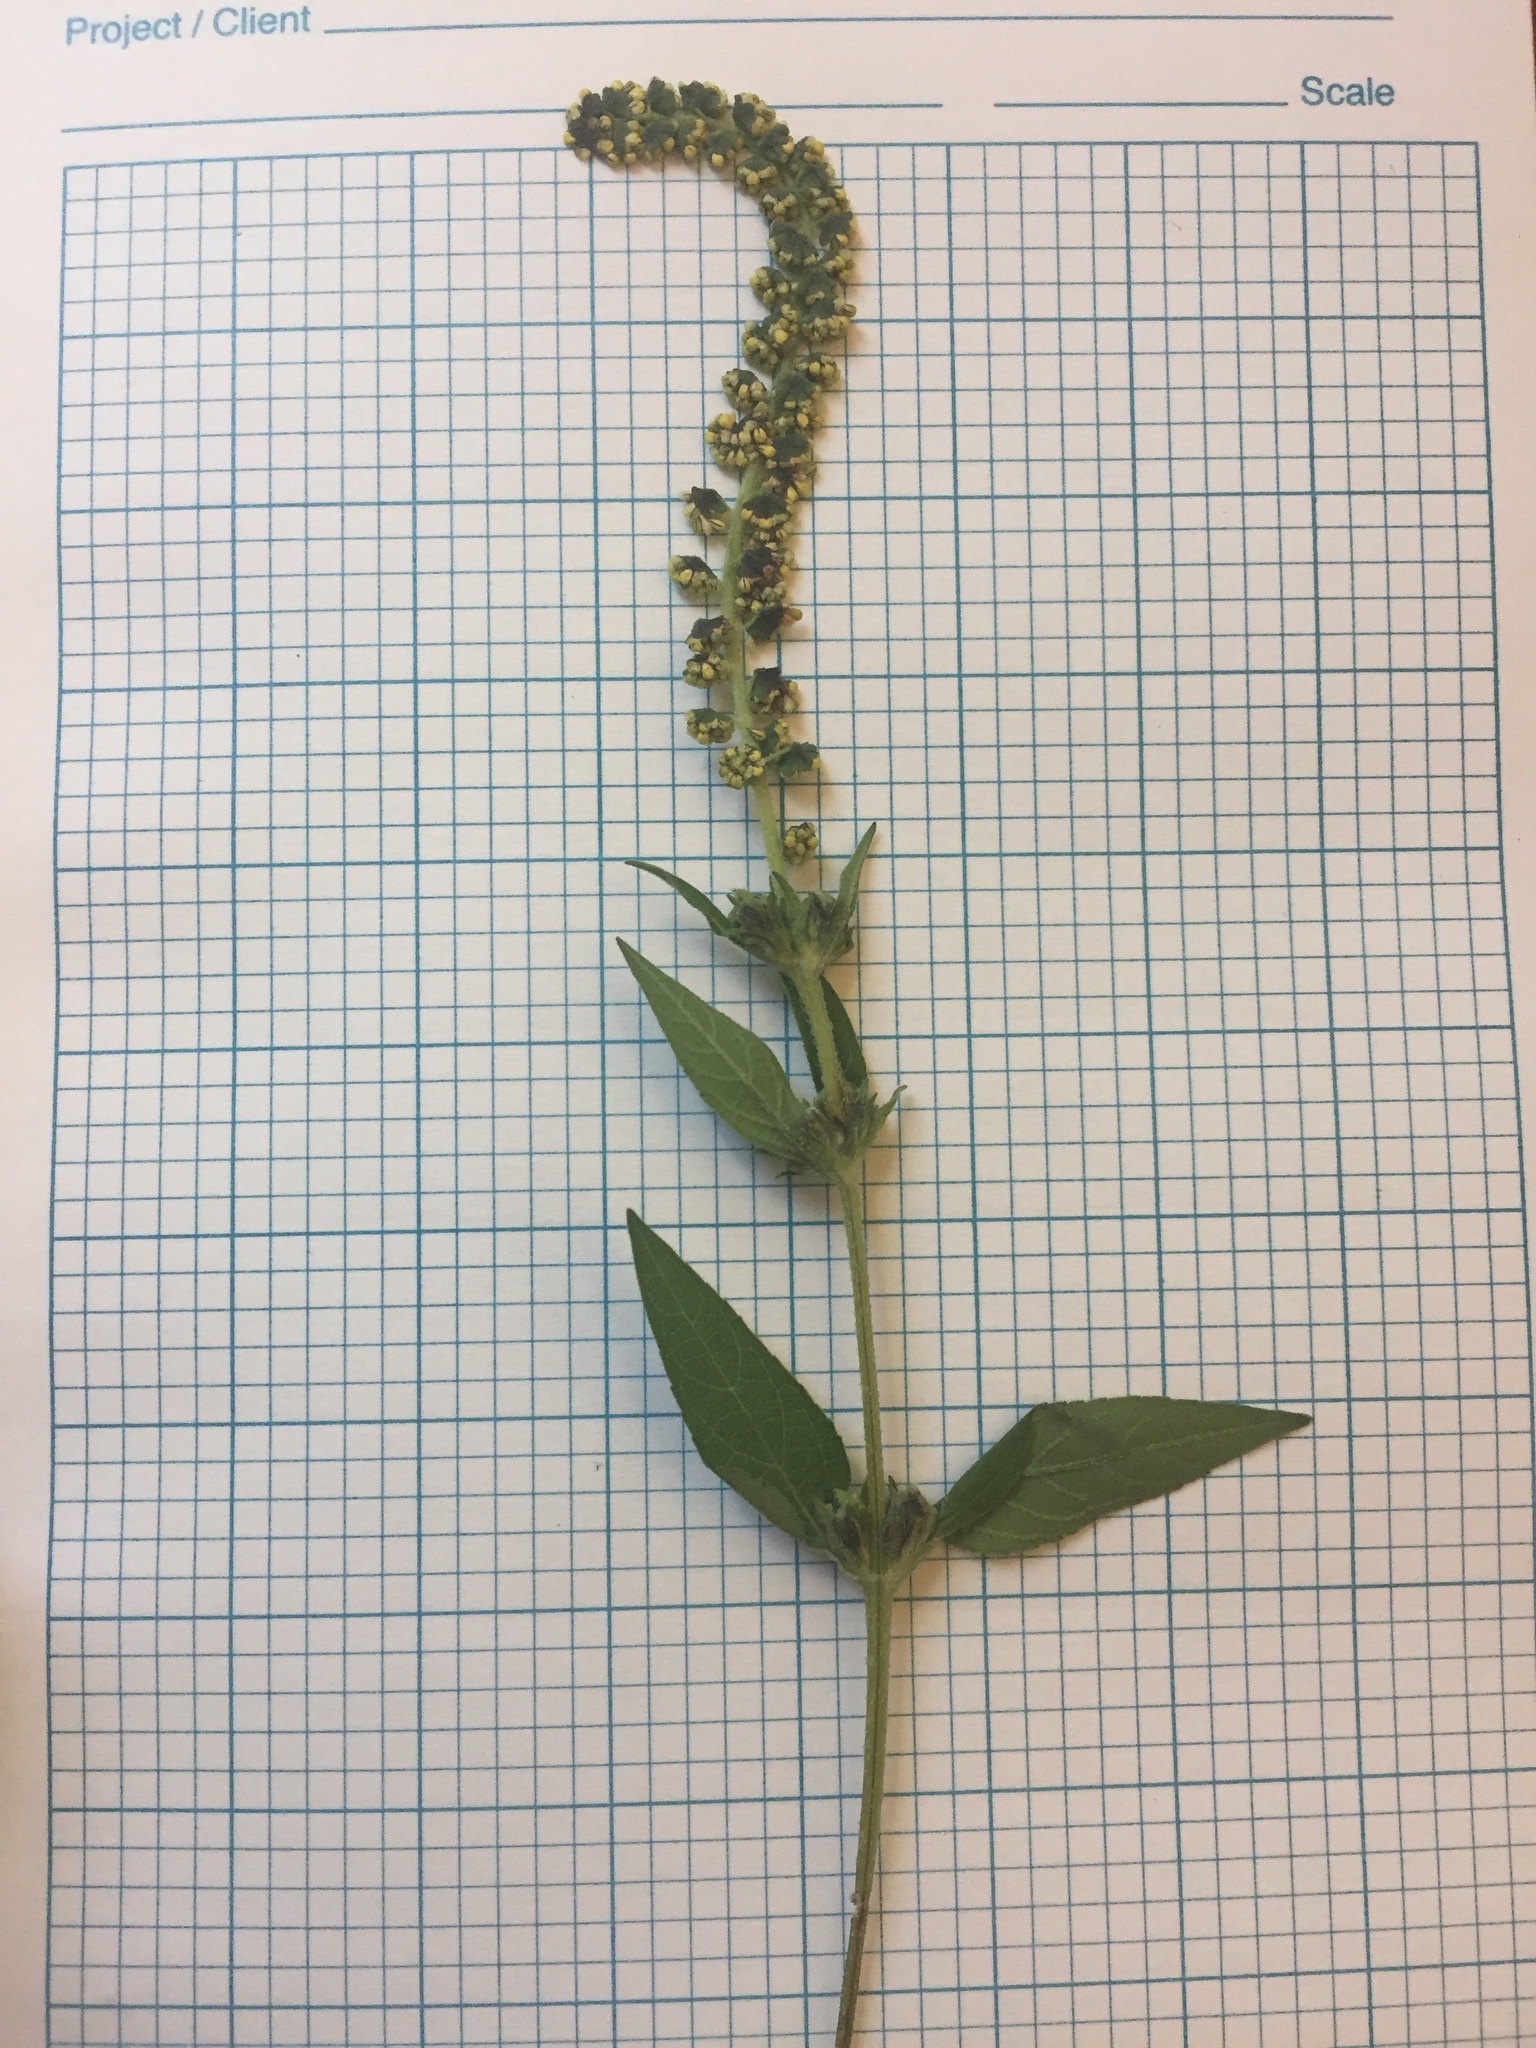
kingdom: Plantae
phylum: Tracheophyta
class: Magnoliopsida
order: Asterales
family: Asteraceae
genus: Ambrosia
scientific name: Ambrosia trifida
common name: Giant ragweed
